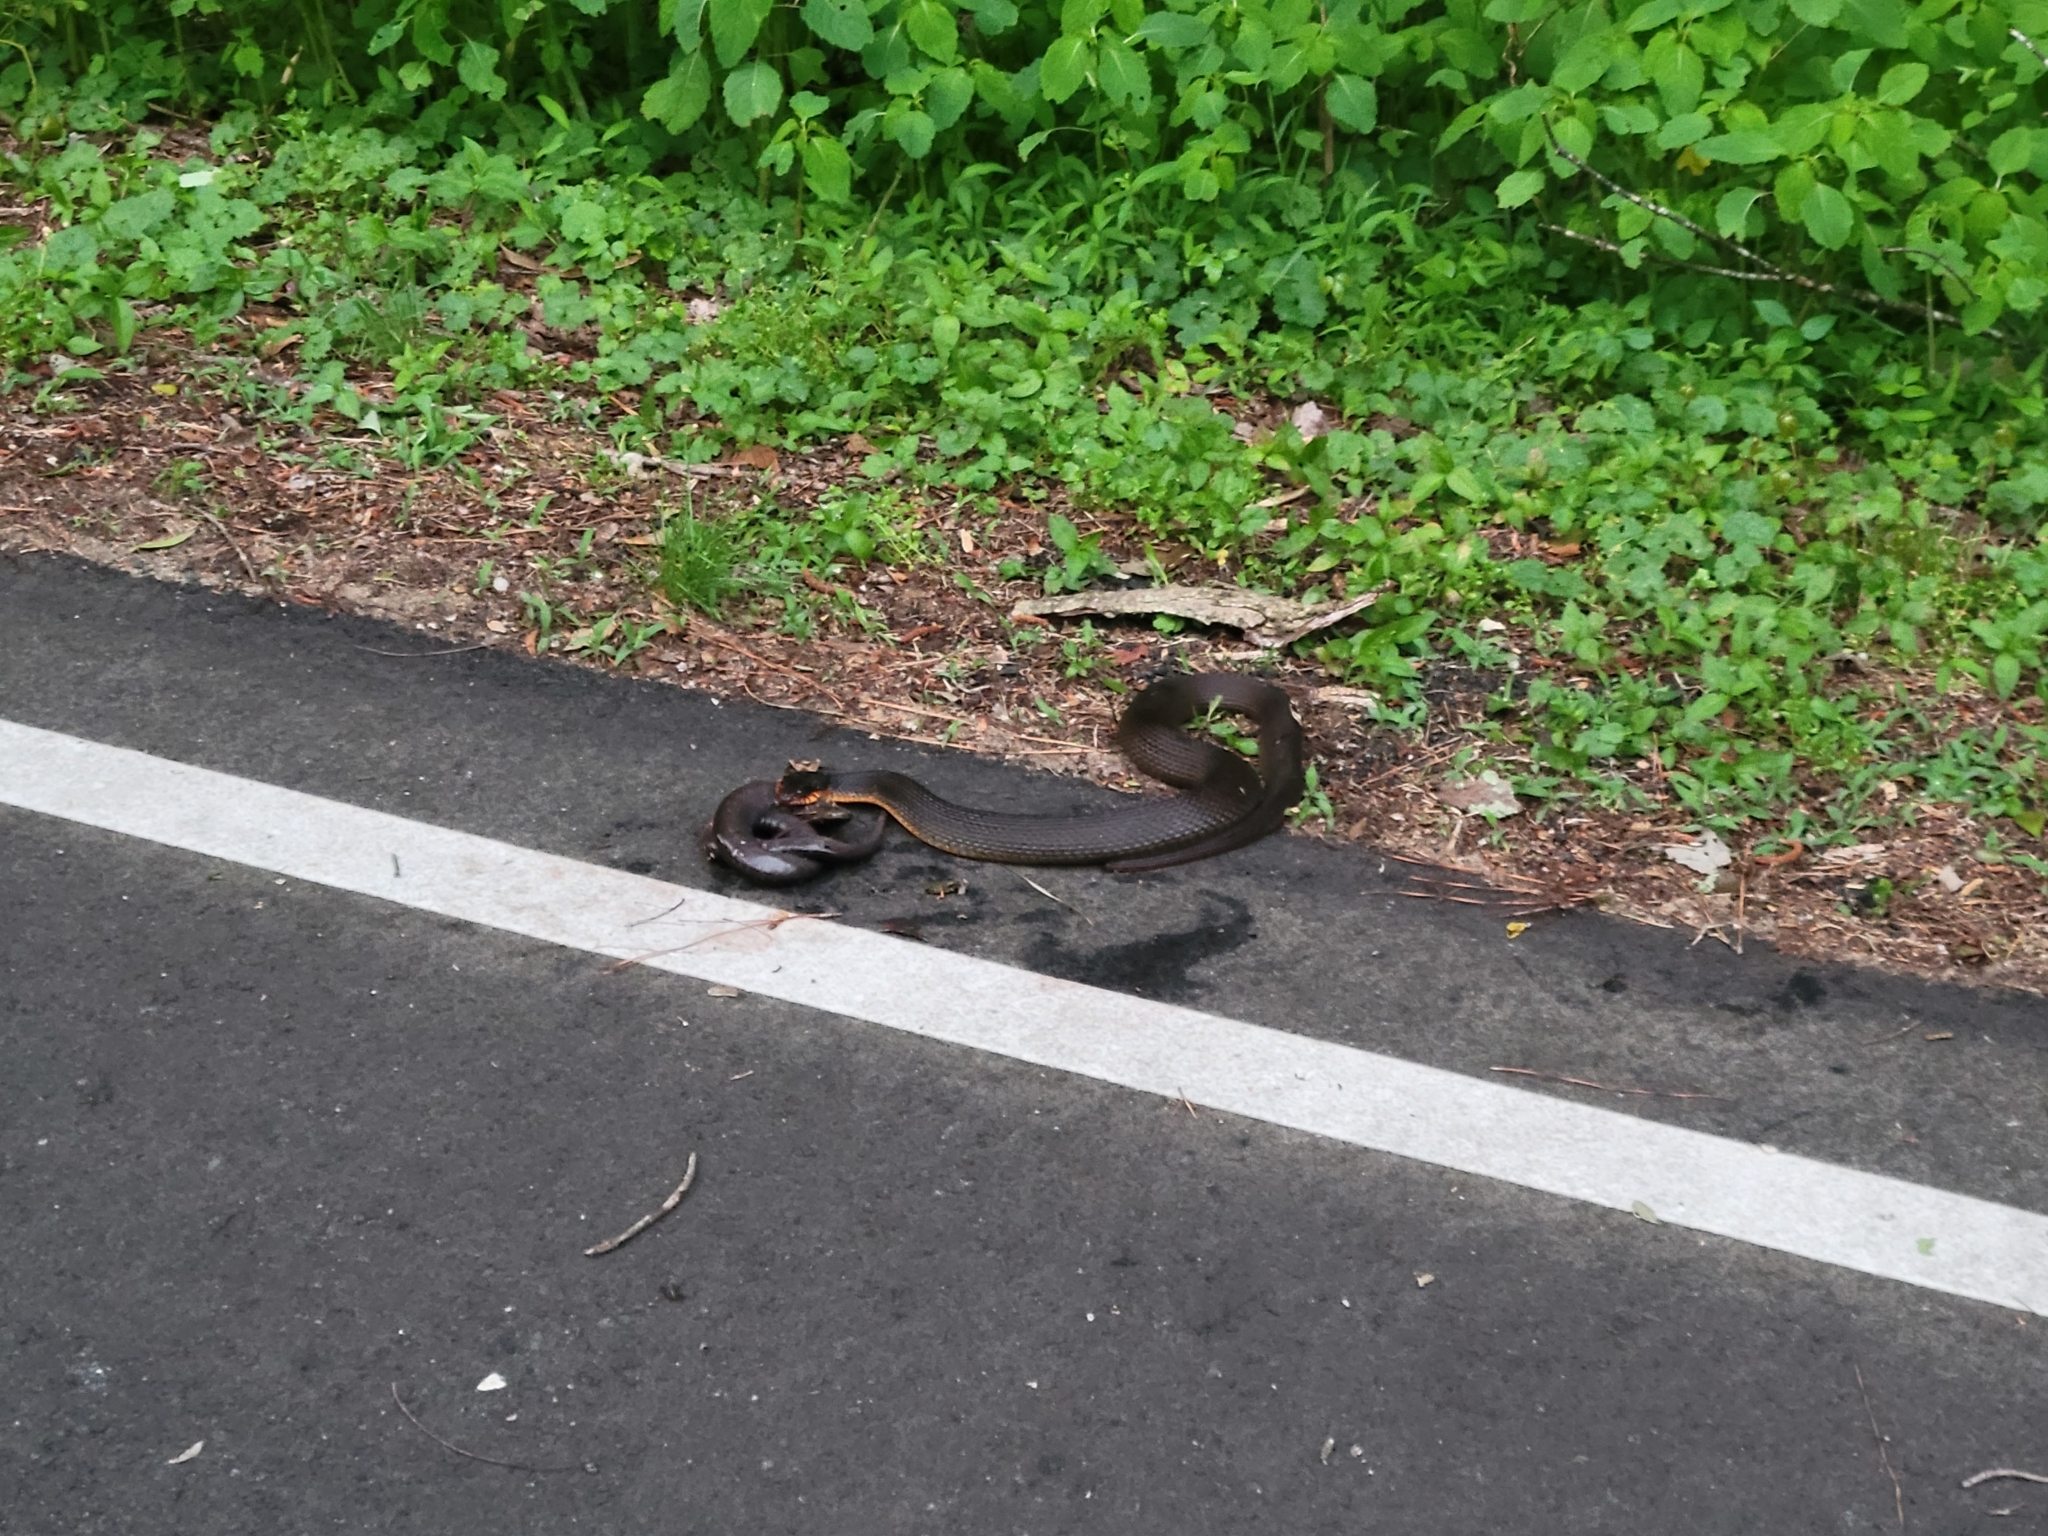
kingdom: Animalia
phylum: Chordata
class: Squamata
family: Colubridae
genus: Nerodia
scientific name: Nerodia erythrogaster
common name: Plainbelly water snake
